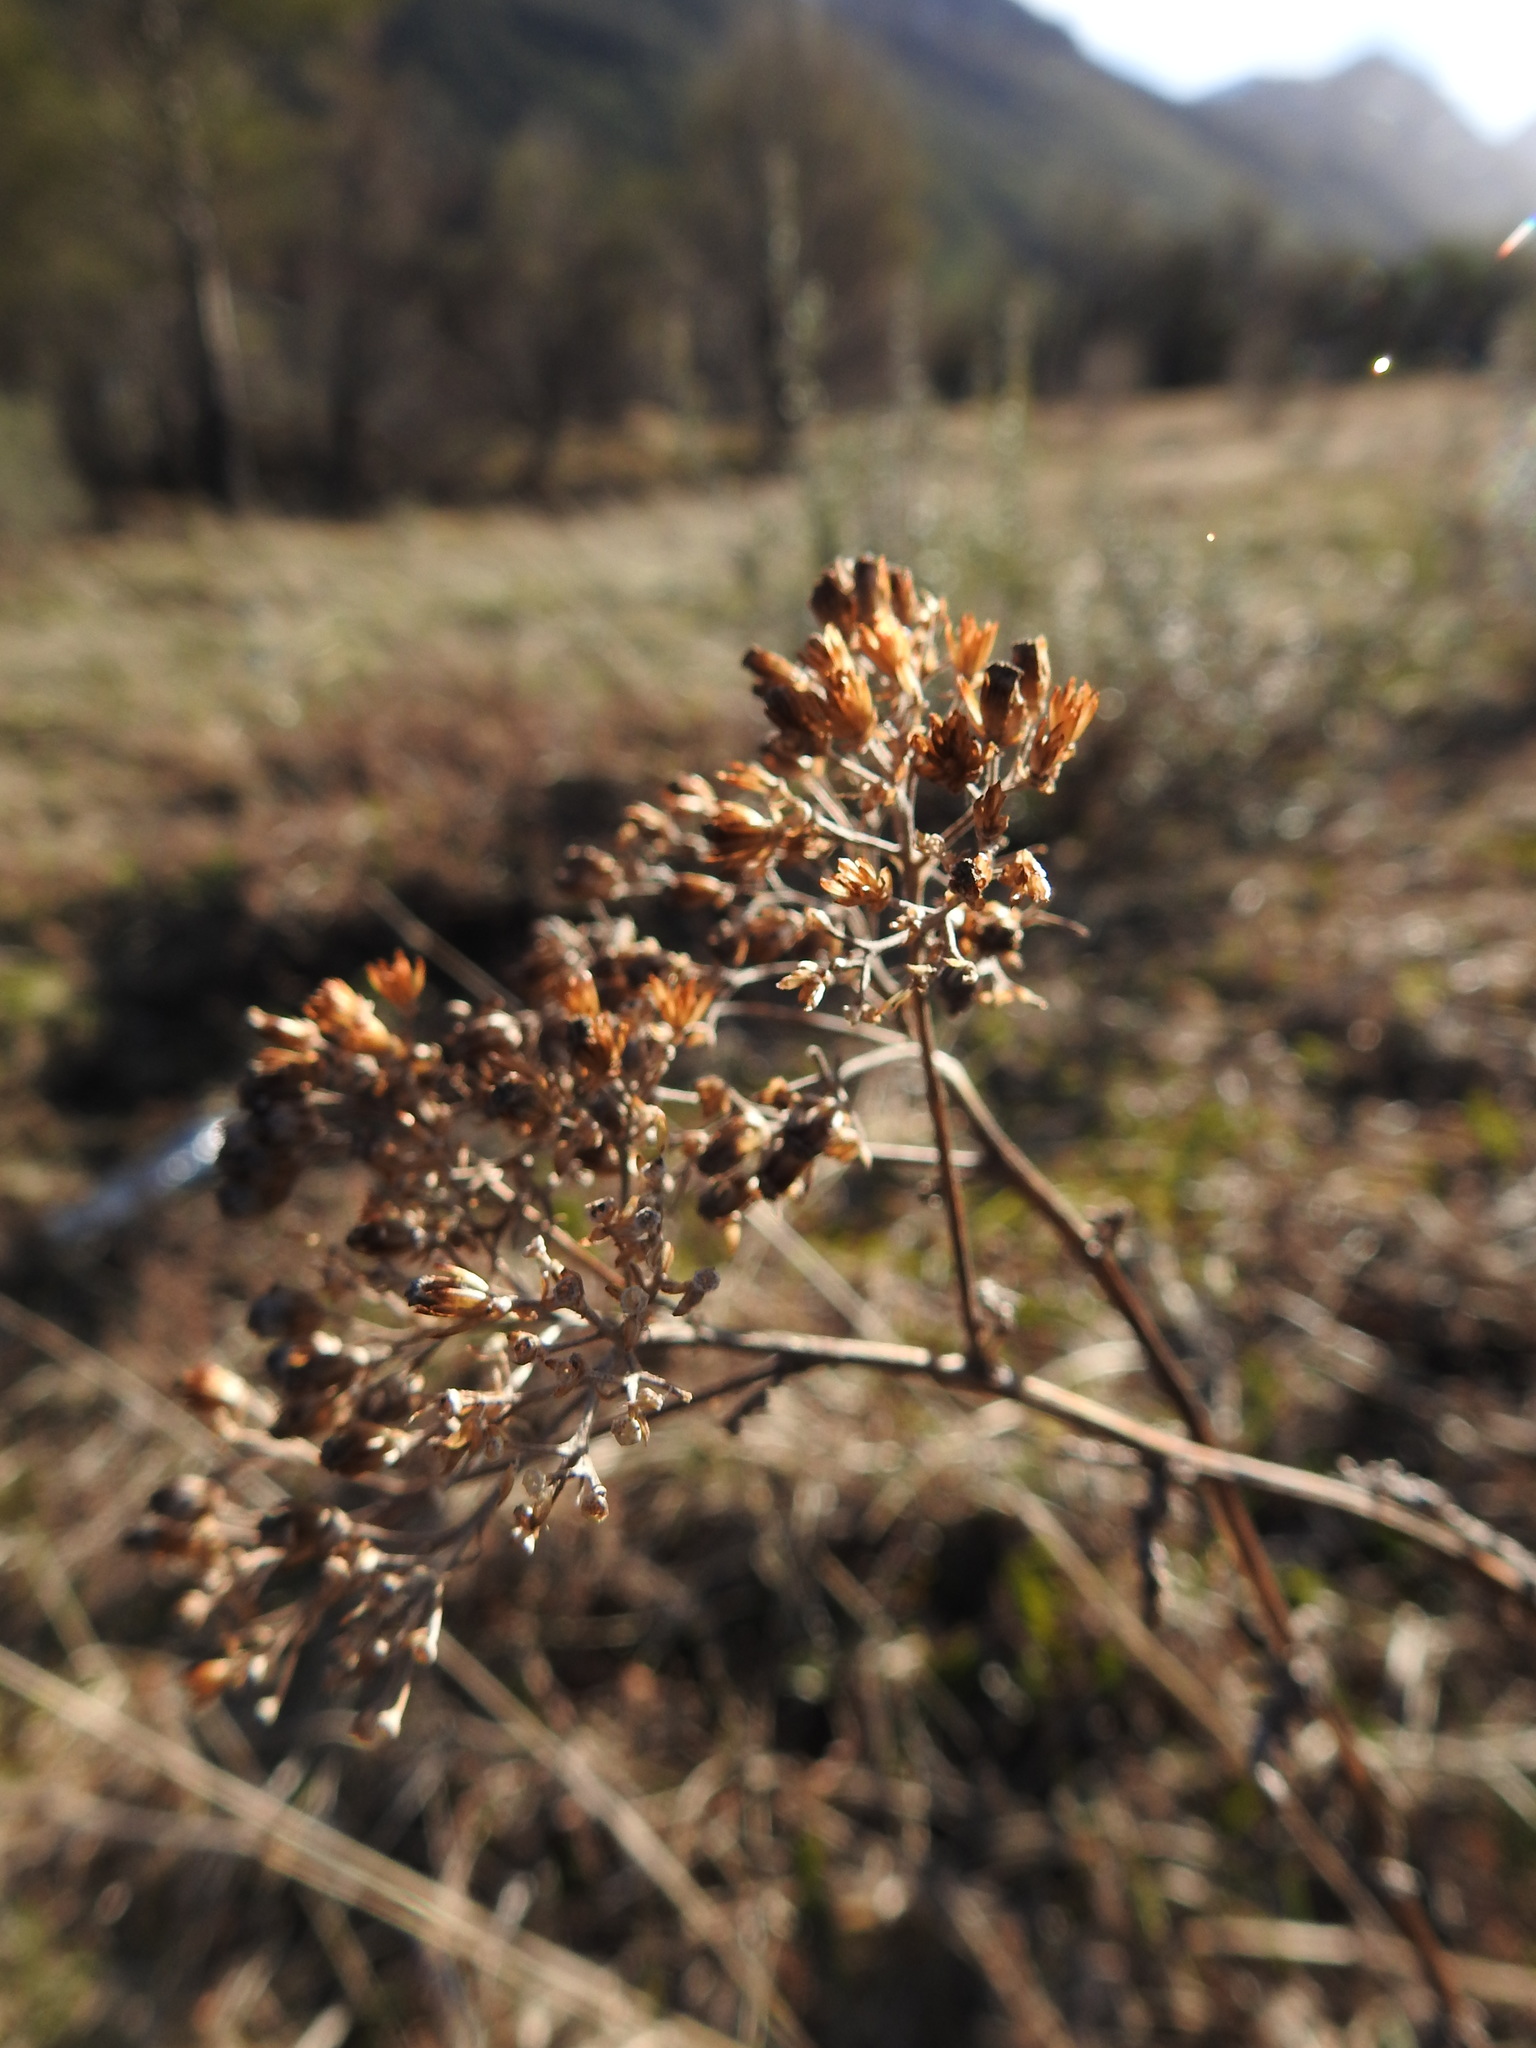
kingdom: Plantae
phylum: Tracheophyta
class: Magnoliopsida
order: Asterales
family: Asteraceae
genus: Achillea
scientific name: Achillea millefolium
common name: Yarrow
